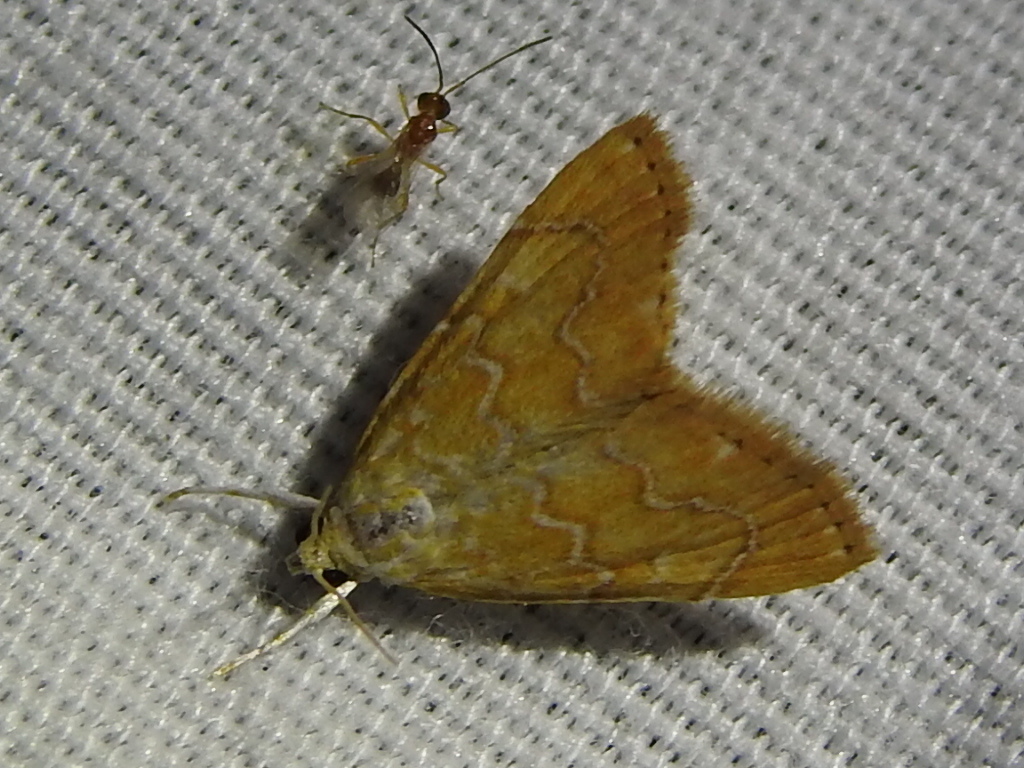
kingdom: Animalia
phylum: Arthropoda
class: Insecta
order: Lepidoptera
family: Crambidae
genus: Glaphyria
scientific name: Glaphyria sesquistrialis
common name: White-roped glaphyria
